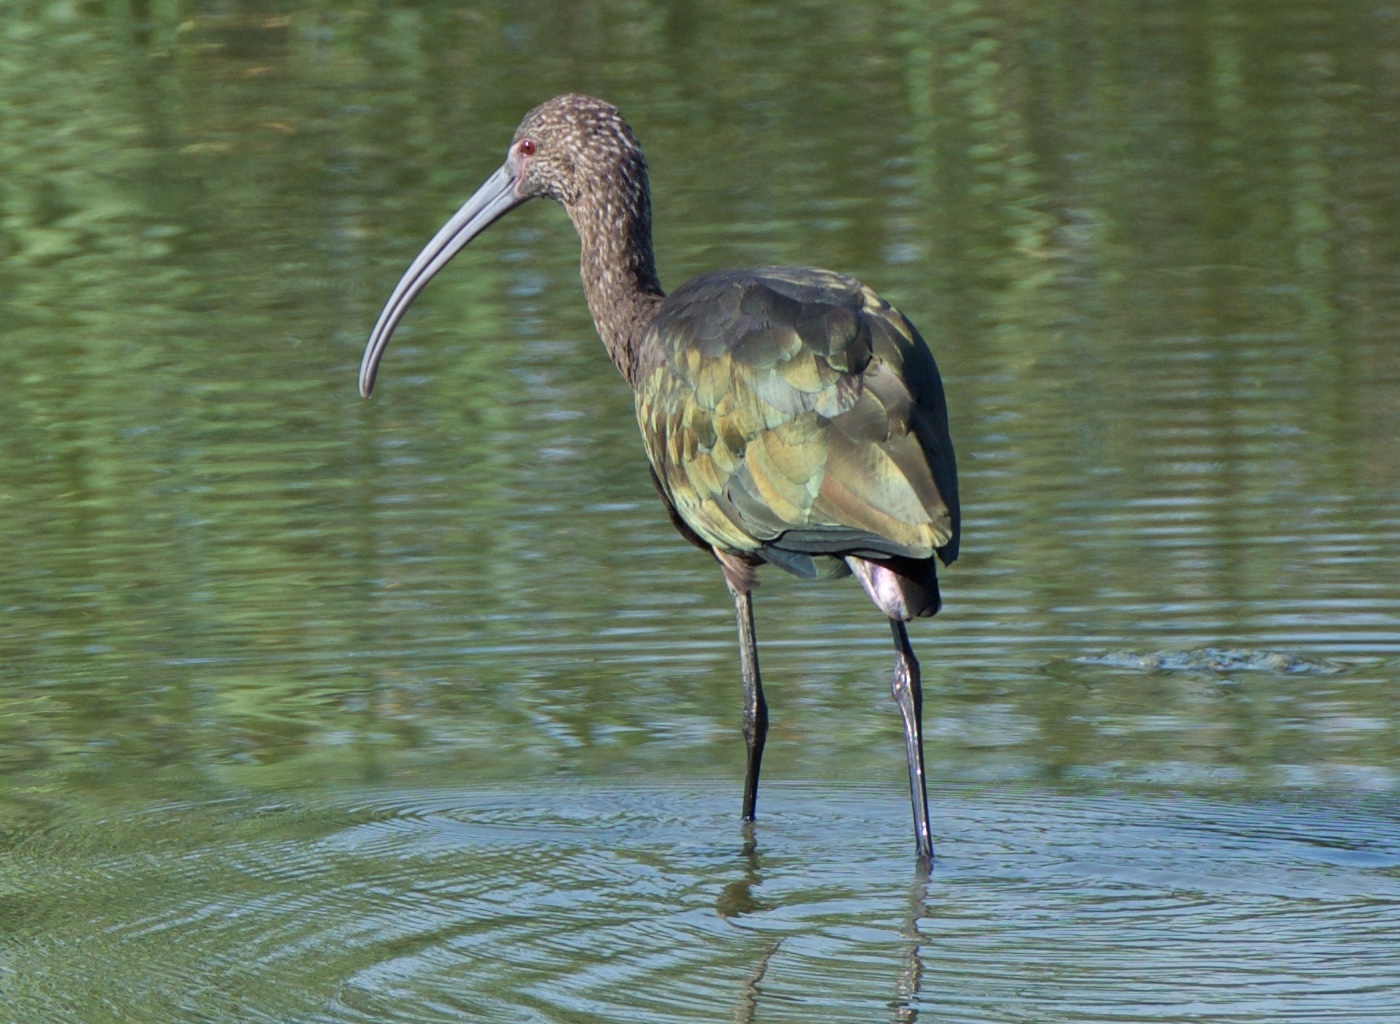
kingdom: Animalia
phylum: Chordata
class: Aves
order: Pelecaniformes
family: Threskiornithidae
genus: Plegadis
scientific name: Plegadis chihi
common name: White-faced ibis
